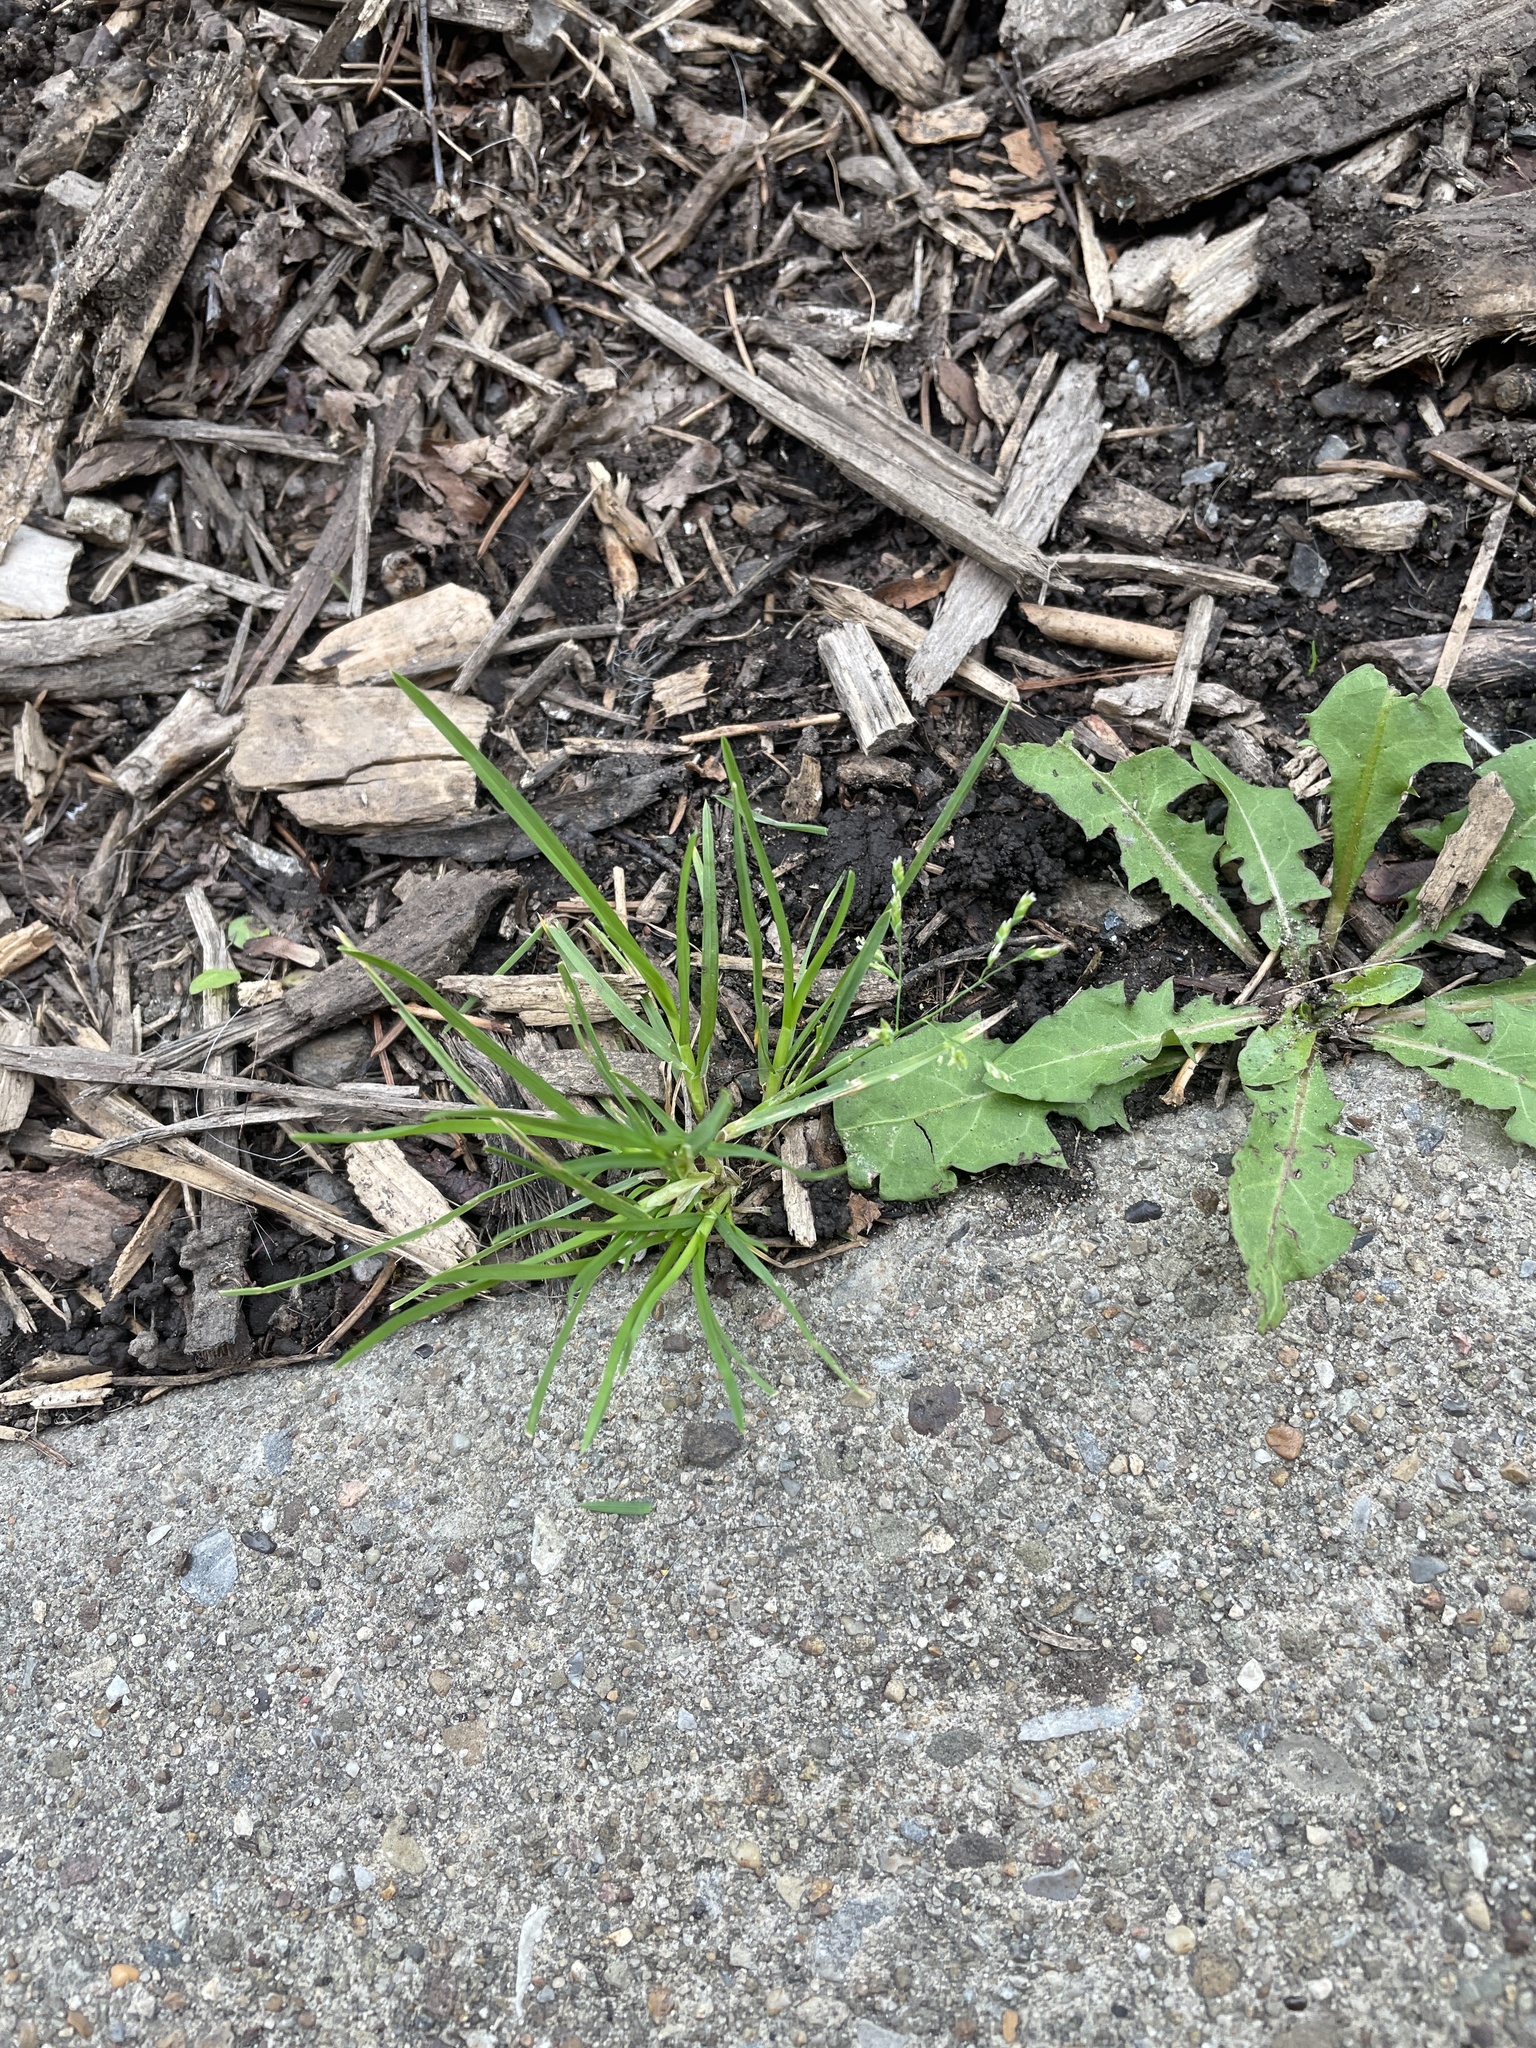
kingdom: Plantae
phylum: Tracheophyta
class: Liliopsida
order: Poales
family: Poaceae
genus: Poa
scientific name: Poa annua
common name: Annual bluegrass
